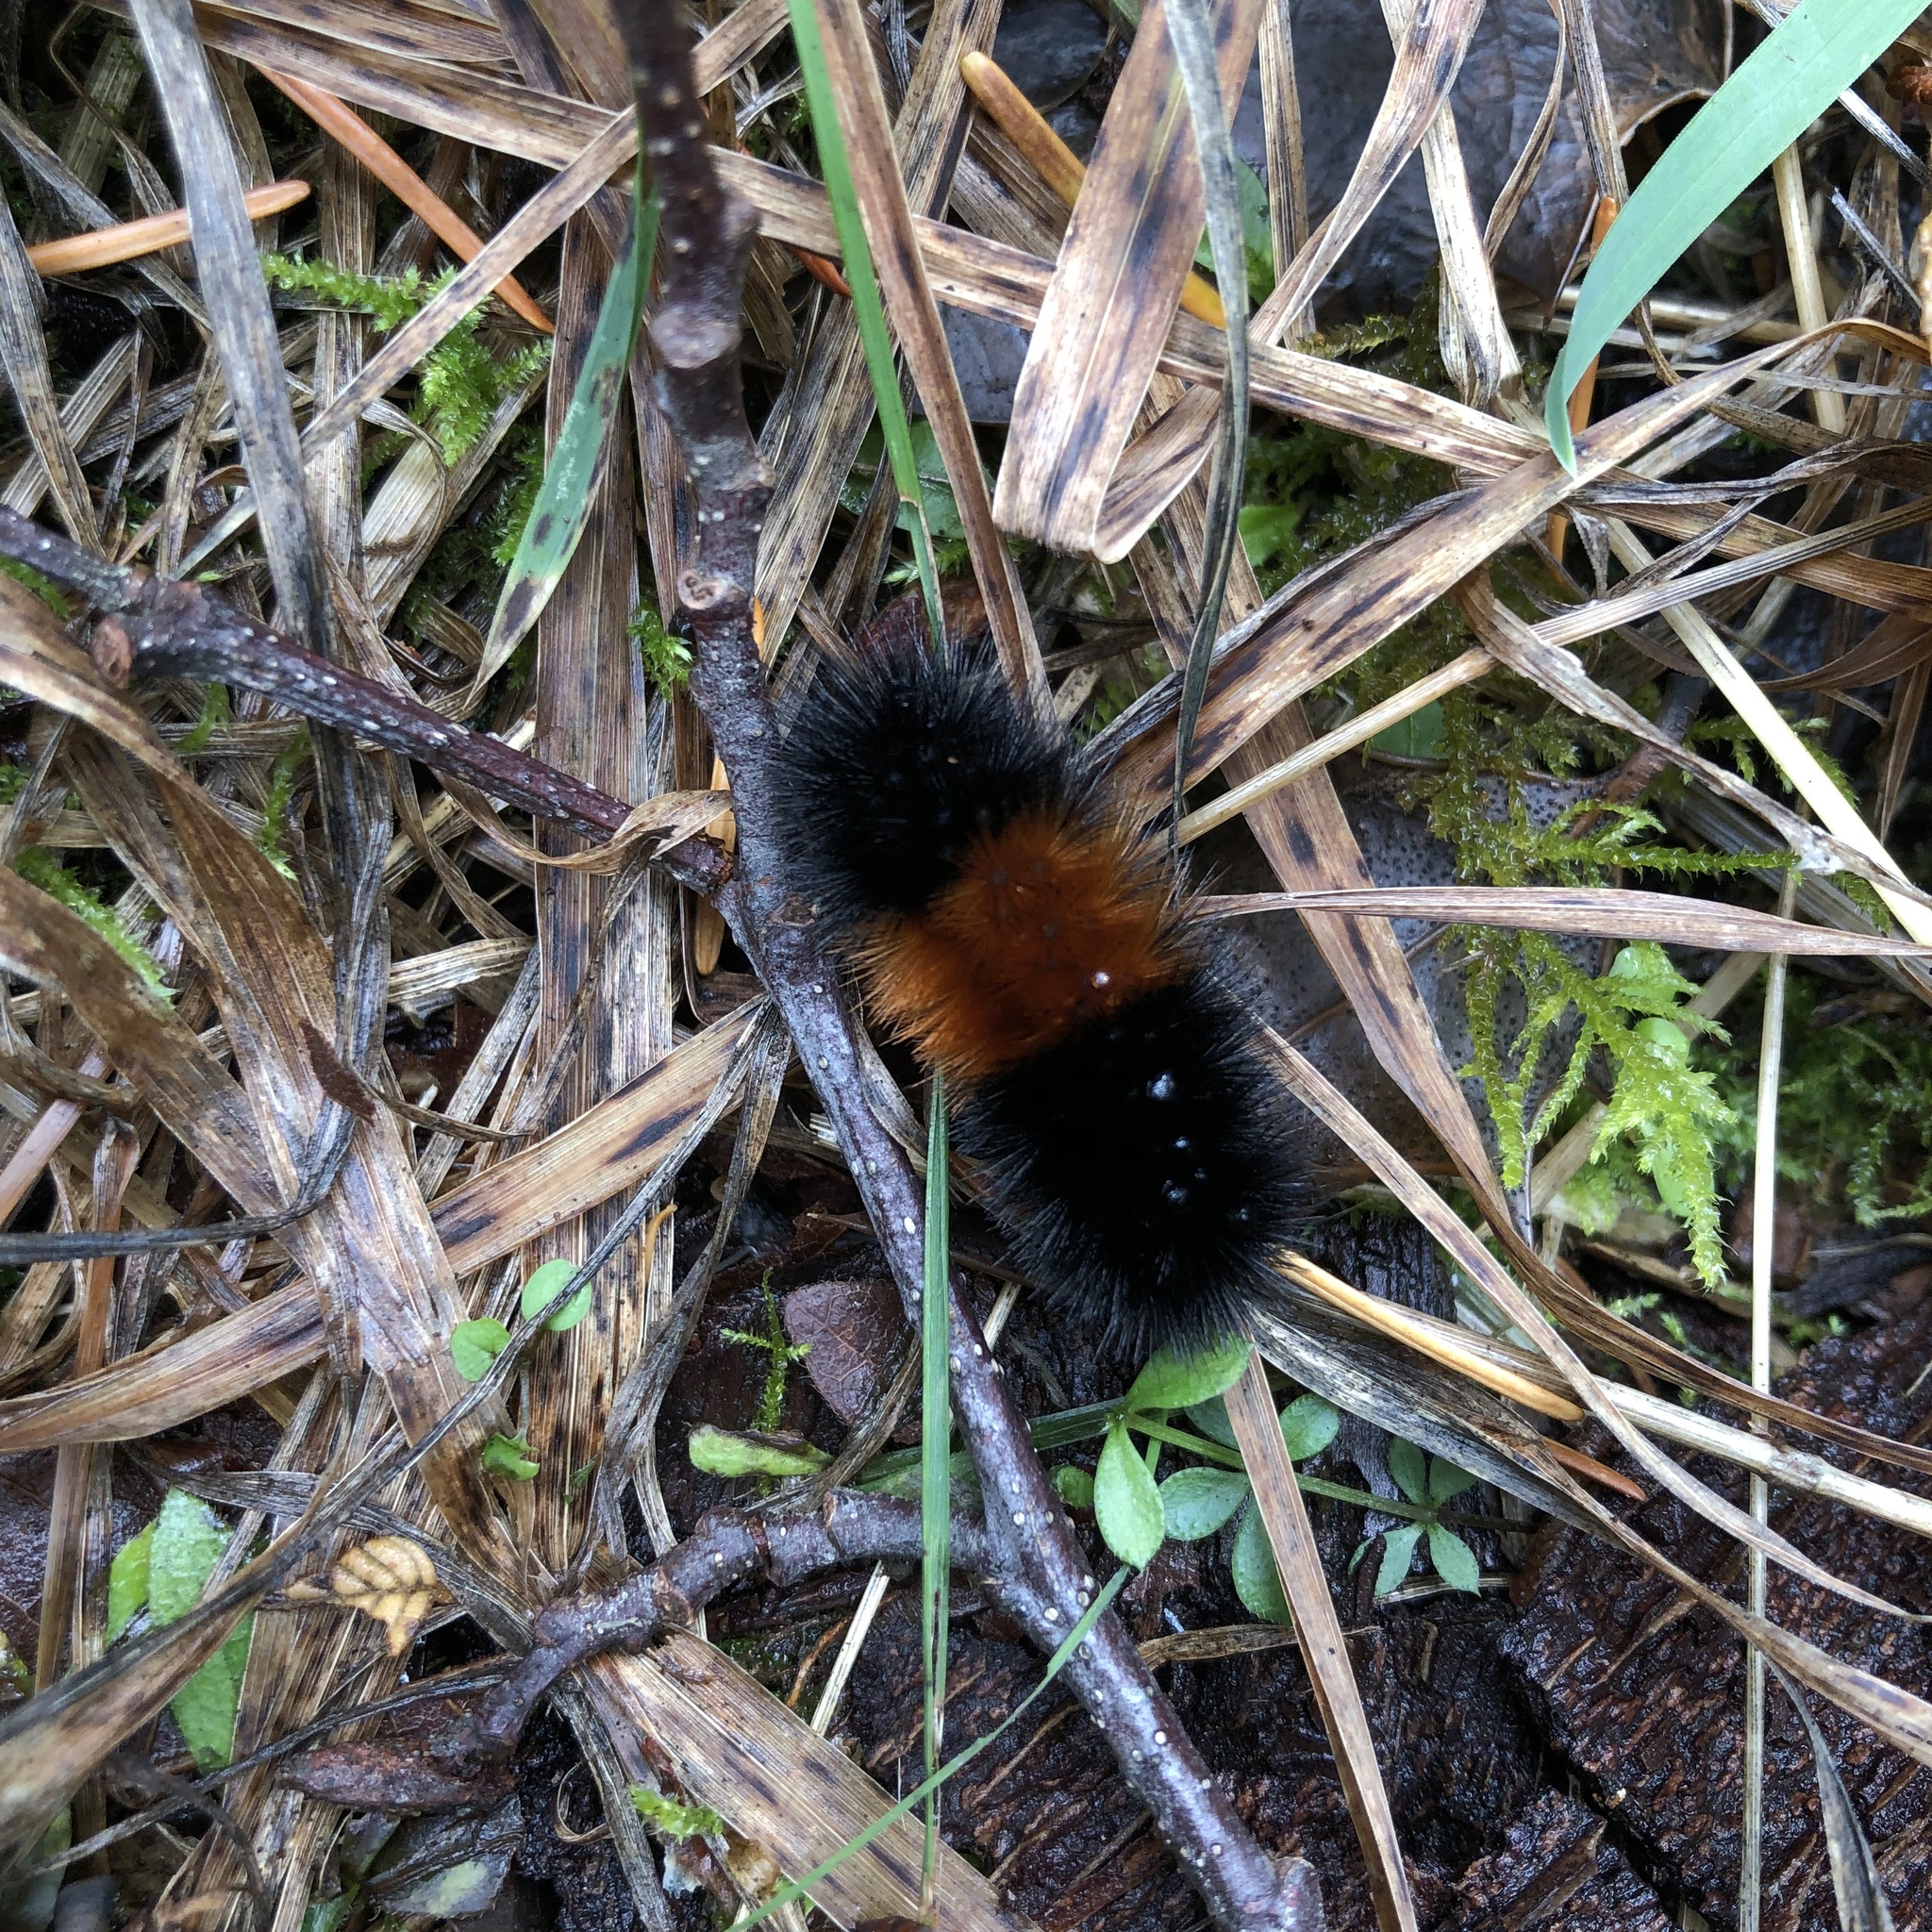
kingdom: Animalia
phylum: Arthropoda
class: Insecta
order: Lepidoptera
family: Erebidae
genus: Pyrrharctia
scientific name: Pyrrharctia isabella
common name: Isabella tiger moth
